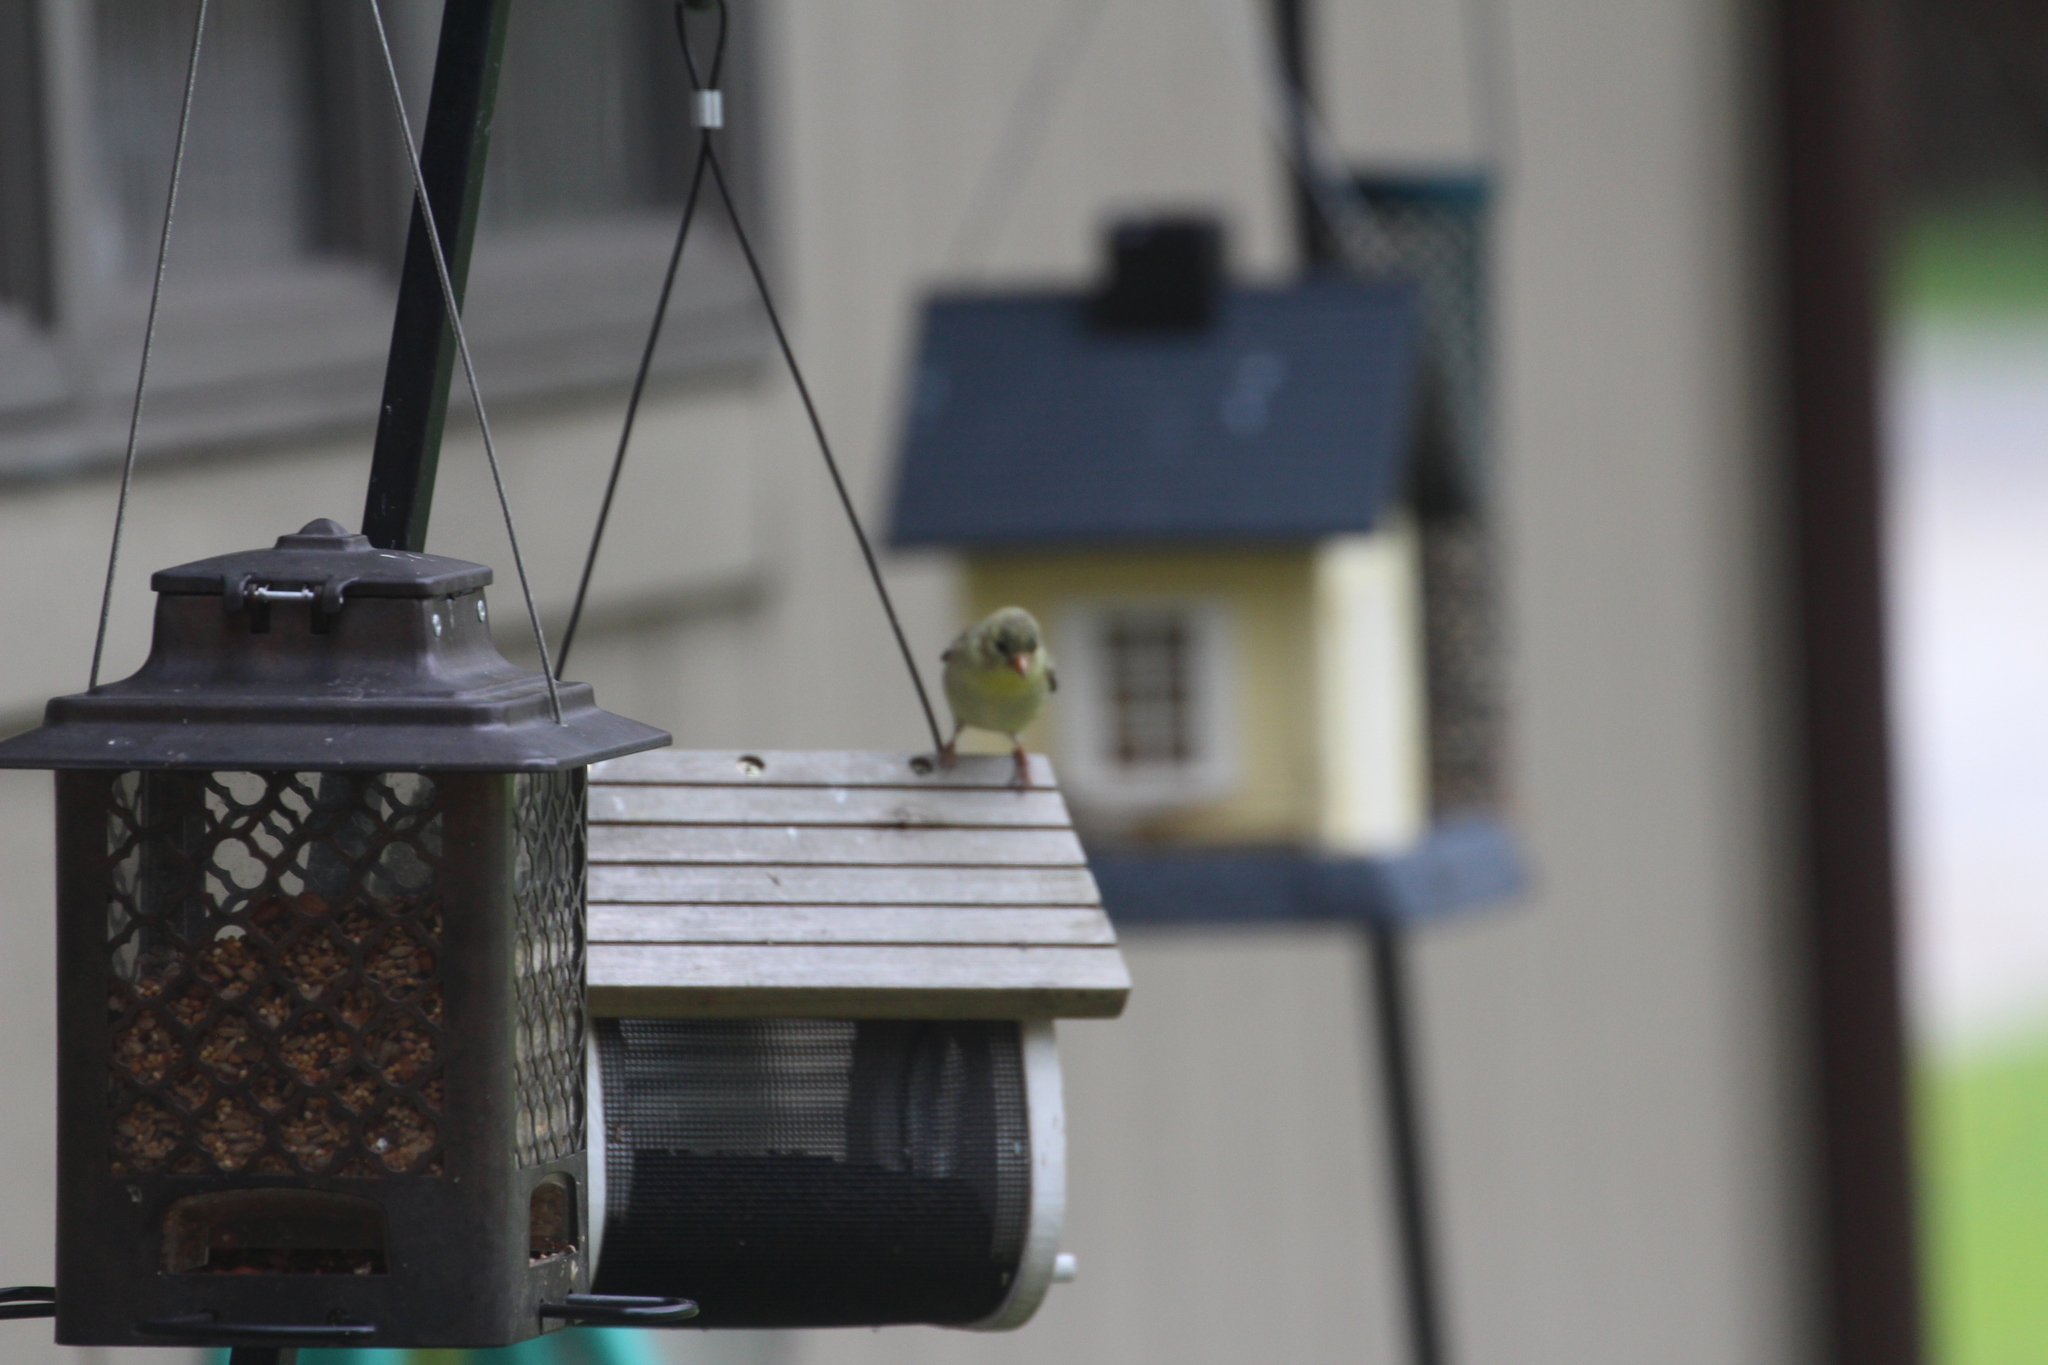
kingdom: Animalia
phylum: Chordata
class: Aves
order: Passeriformes
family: Fringillidae
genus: Spinus
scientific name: Spinus tristis
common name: American goldfinch
